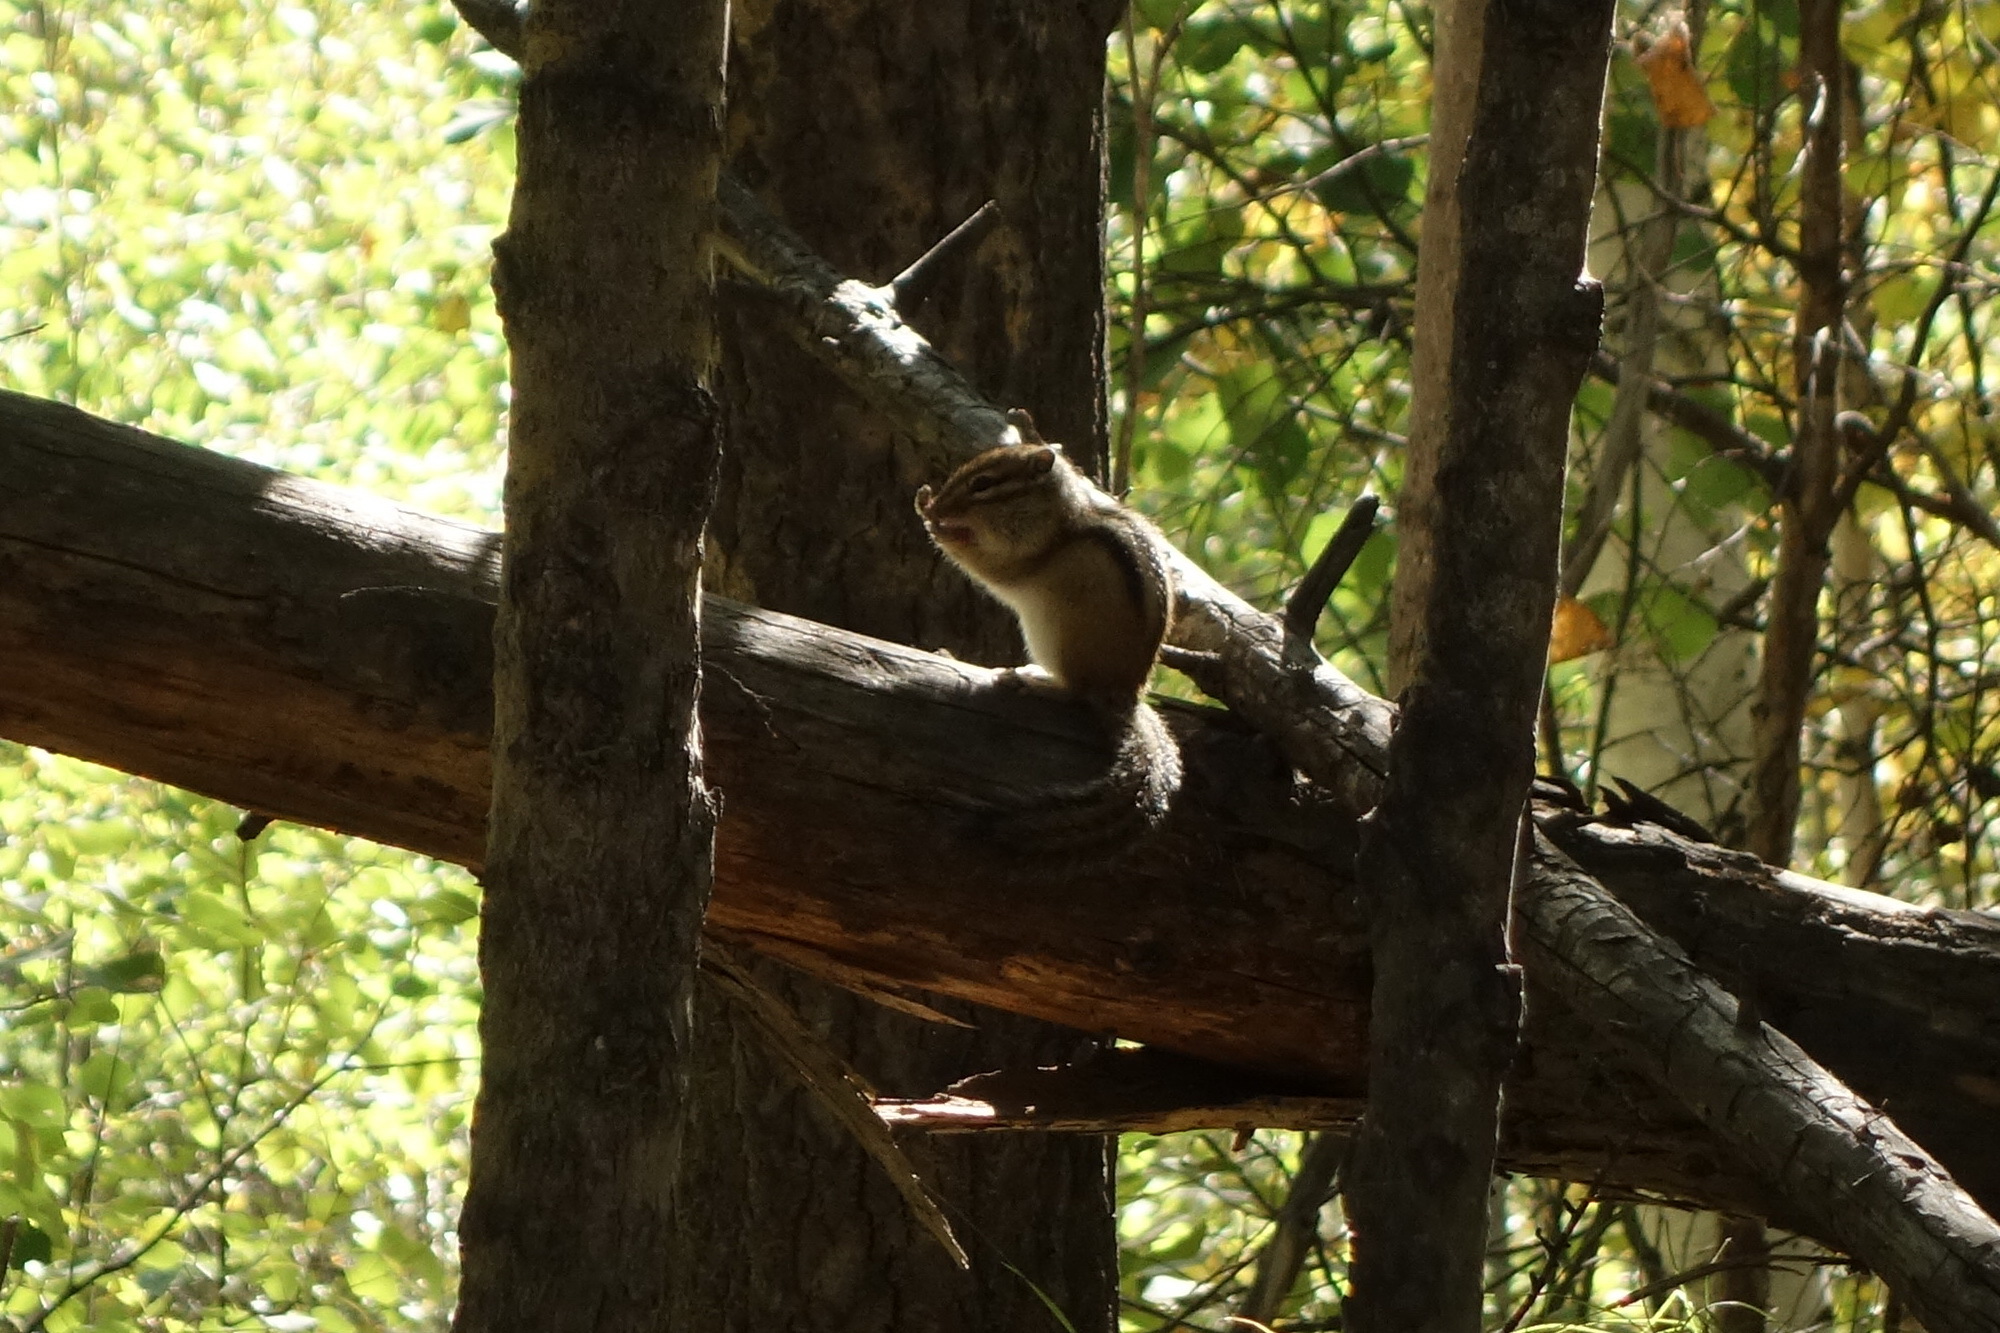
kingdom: Animalia
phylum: Chordata
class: Mammalia
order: Rodentia
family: Sciuridae
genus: Tamias
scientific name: Tamias sibiricus
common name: Siberian chipmunk
